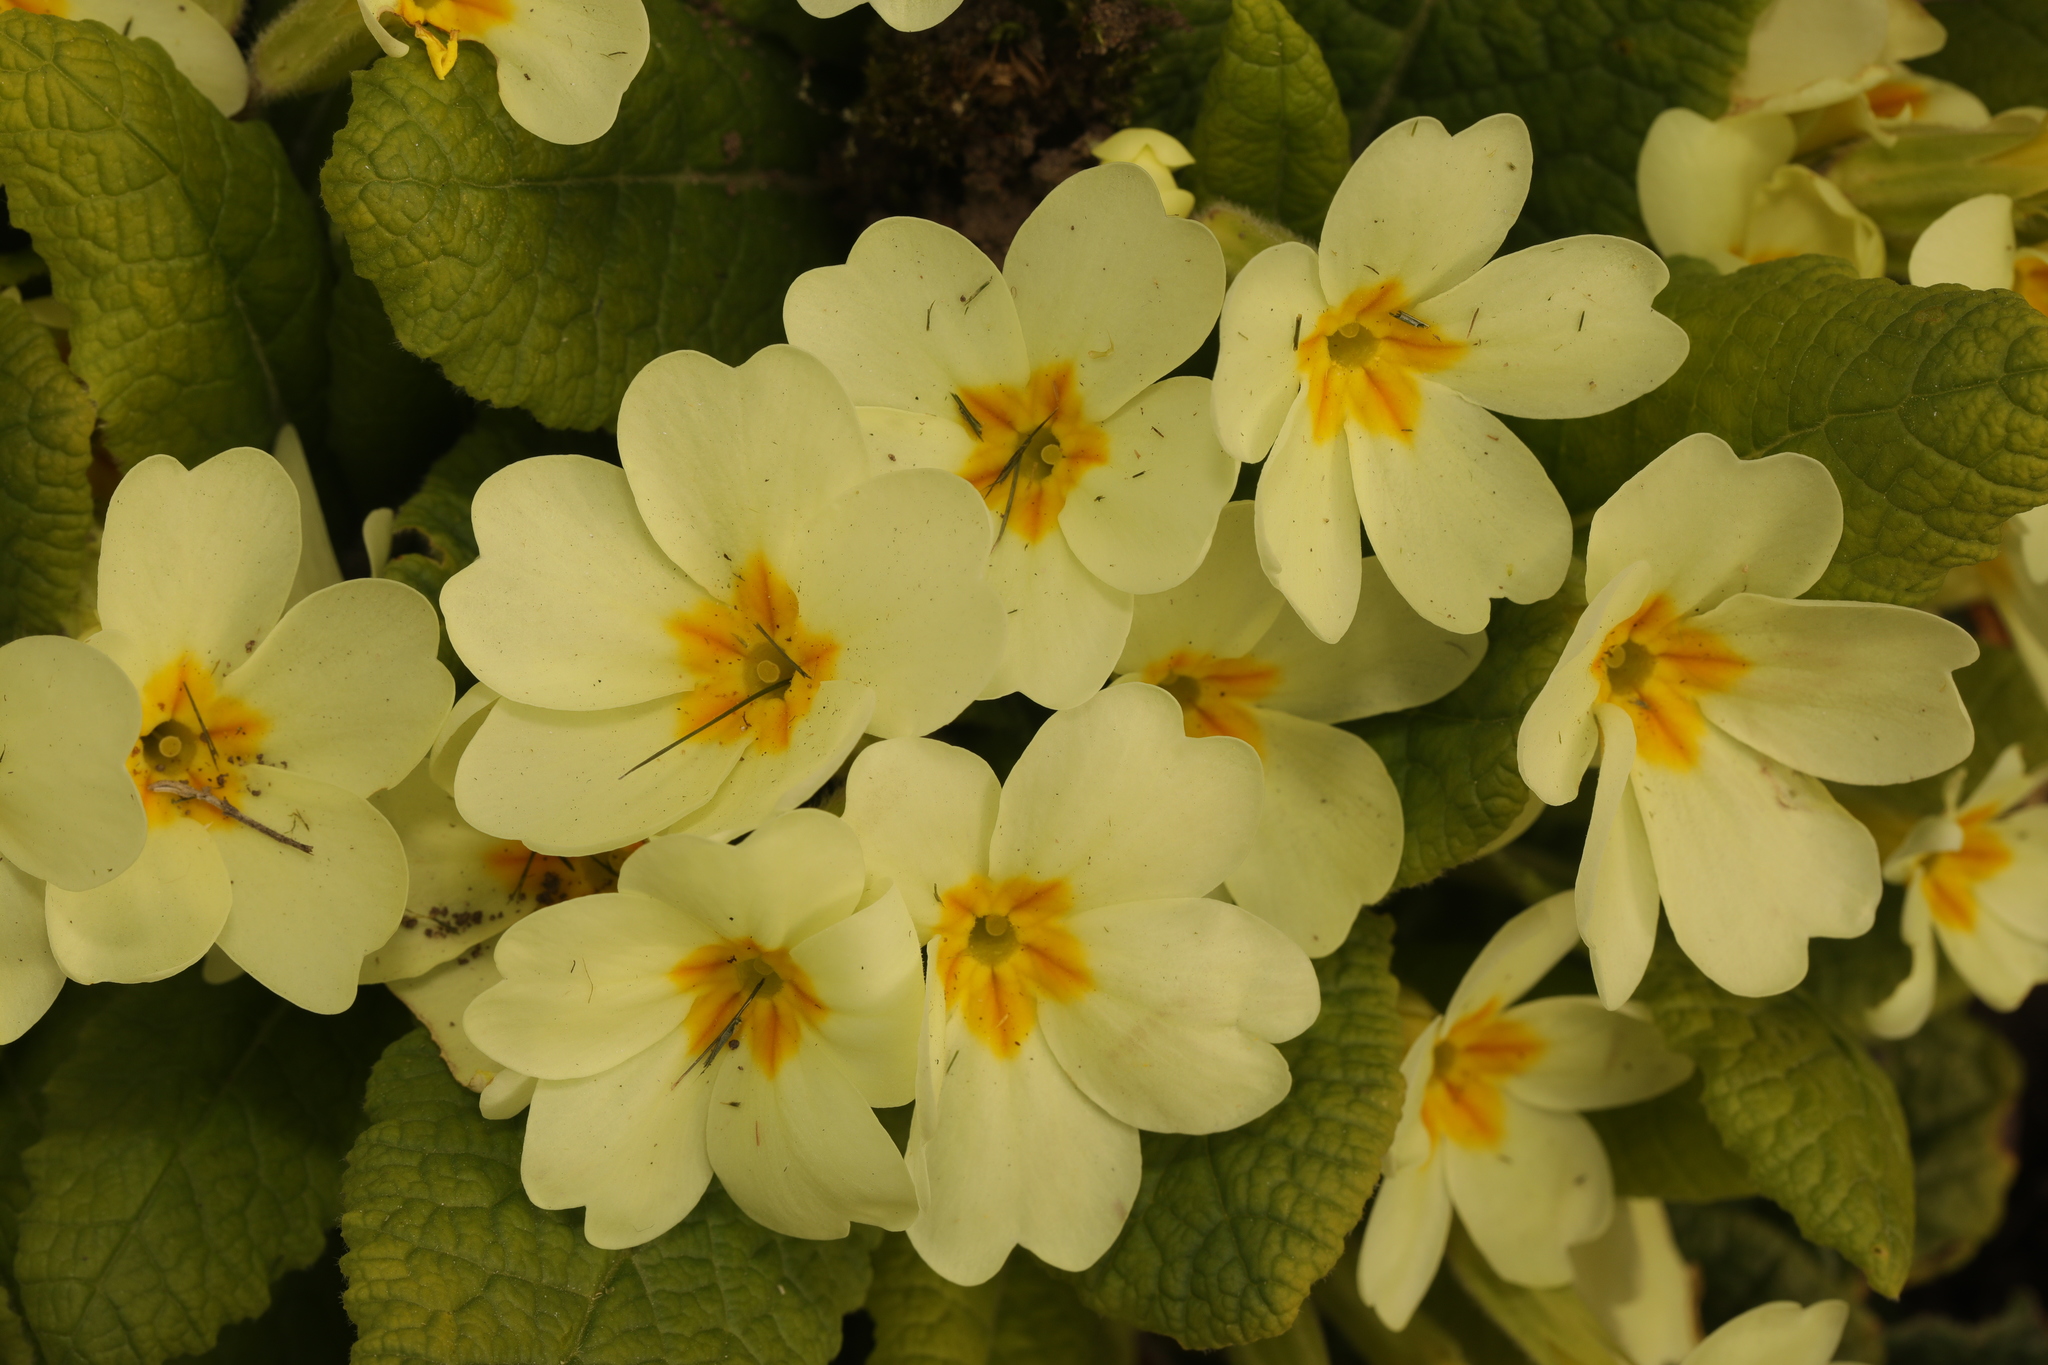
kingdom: Plantae
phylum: Tracheophyta
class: Magnoliopsida
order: Ericales
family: Primulaceae
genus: Primula
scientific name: Primula vulgaris
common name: Primrose
